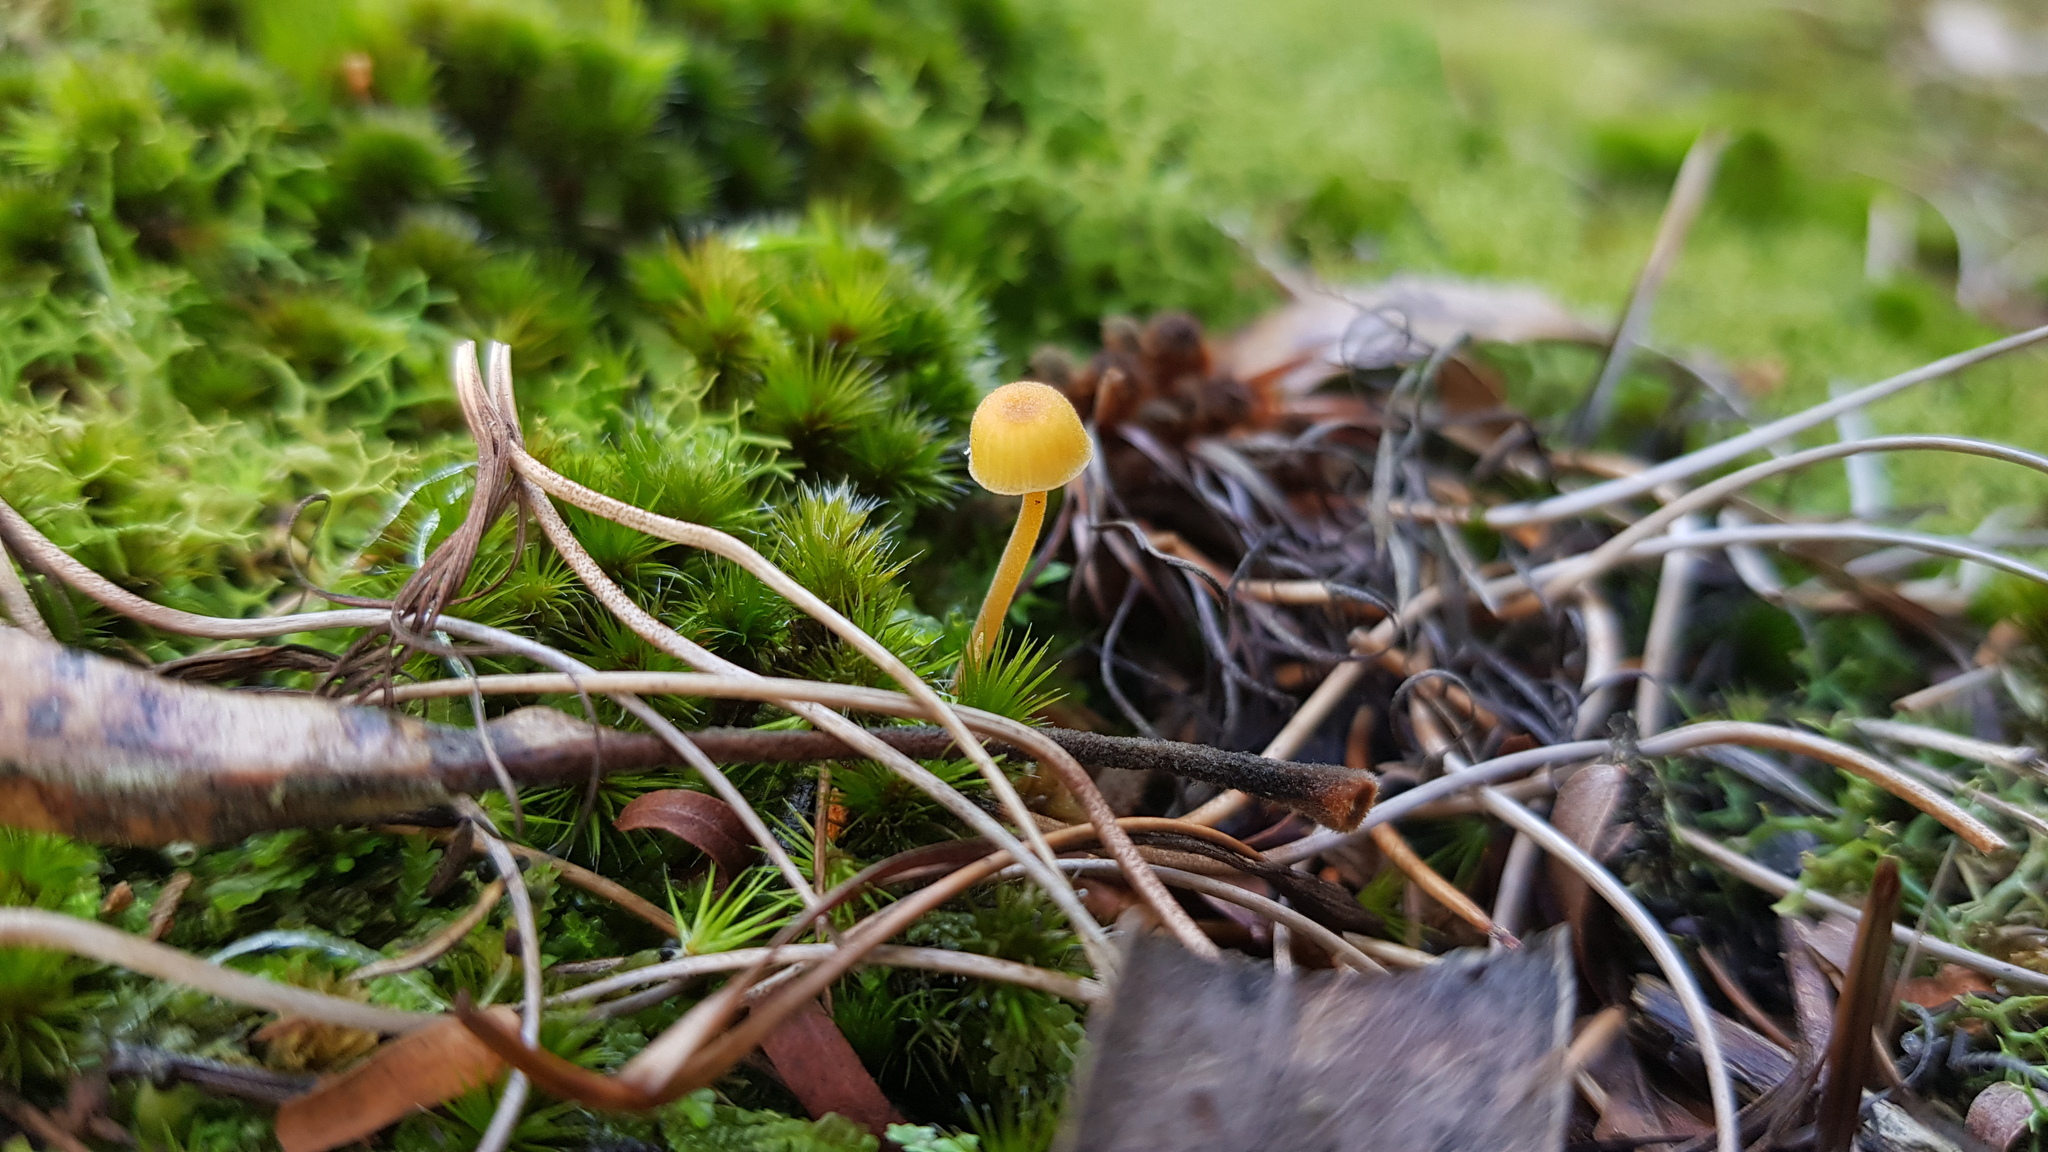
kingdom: Fungi
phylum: Basidiomycota
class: Agaricomycetes
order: Hymenochaetales
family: Rickenellaceae
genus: Rickenella
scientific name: Rickenella fibula
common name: Orange mosscap
